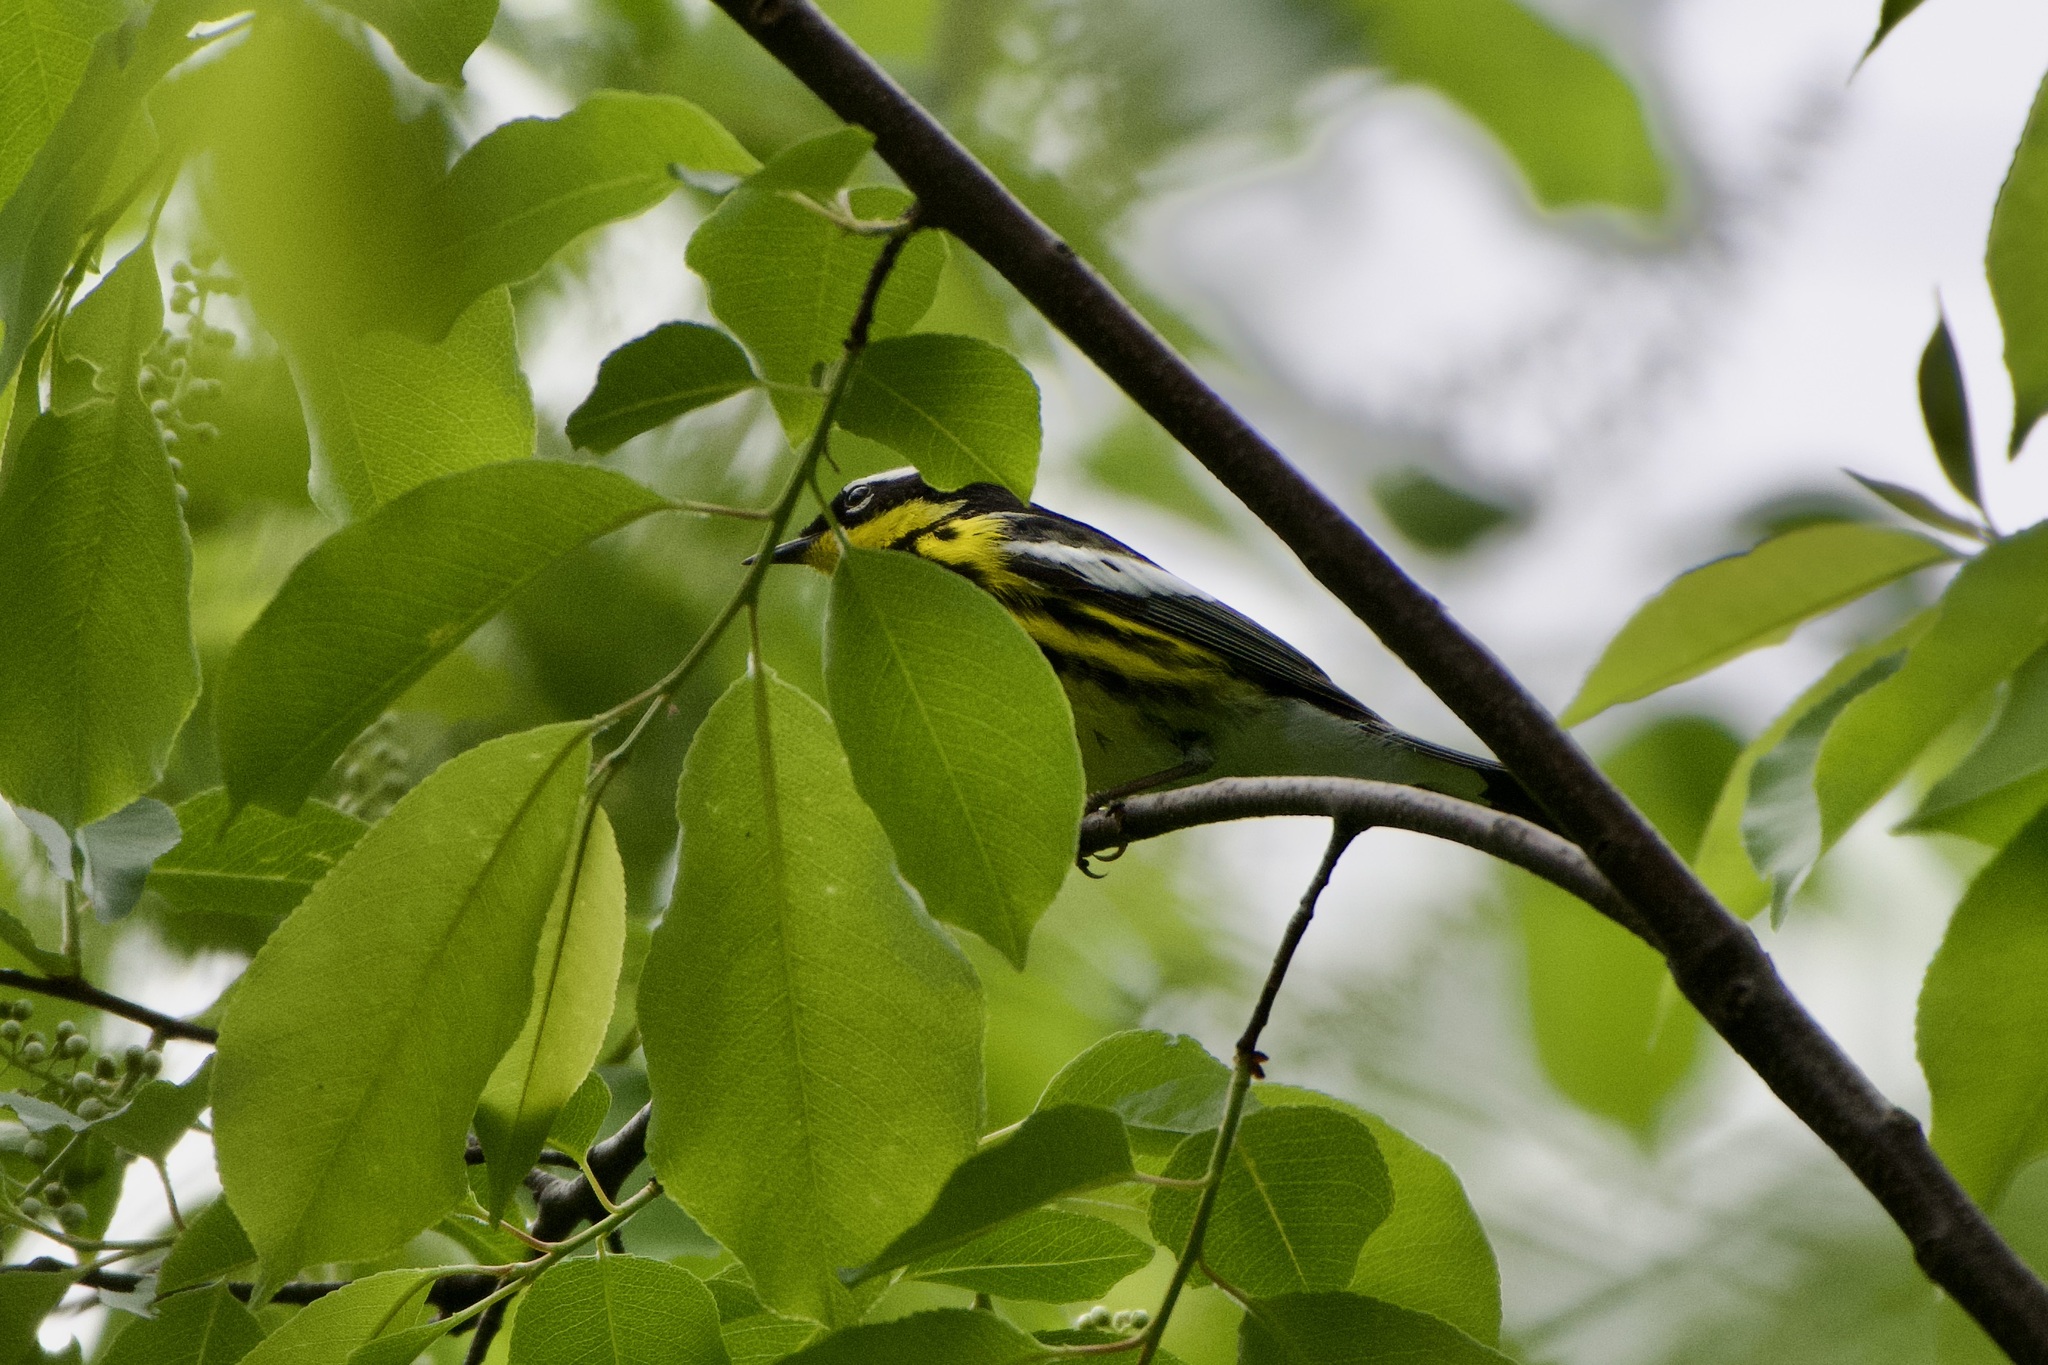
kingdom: Animalia
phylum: Chordata
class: Aves
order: Passeriformes
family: Parulidae
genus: Setophaga
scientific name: Setophaga magnolia
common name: Magnolia warbler
